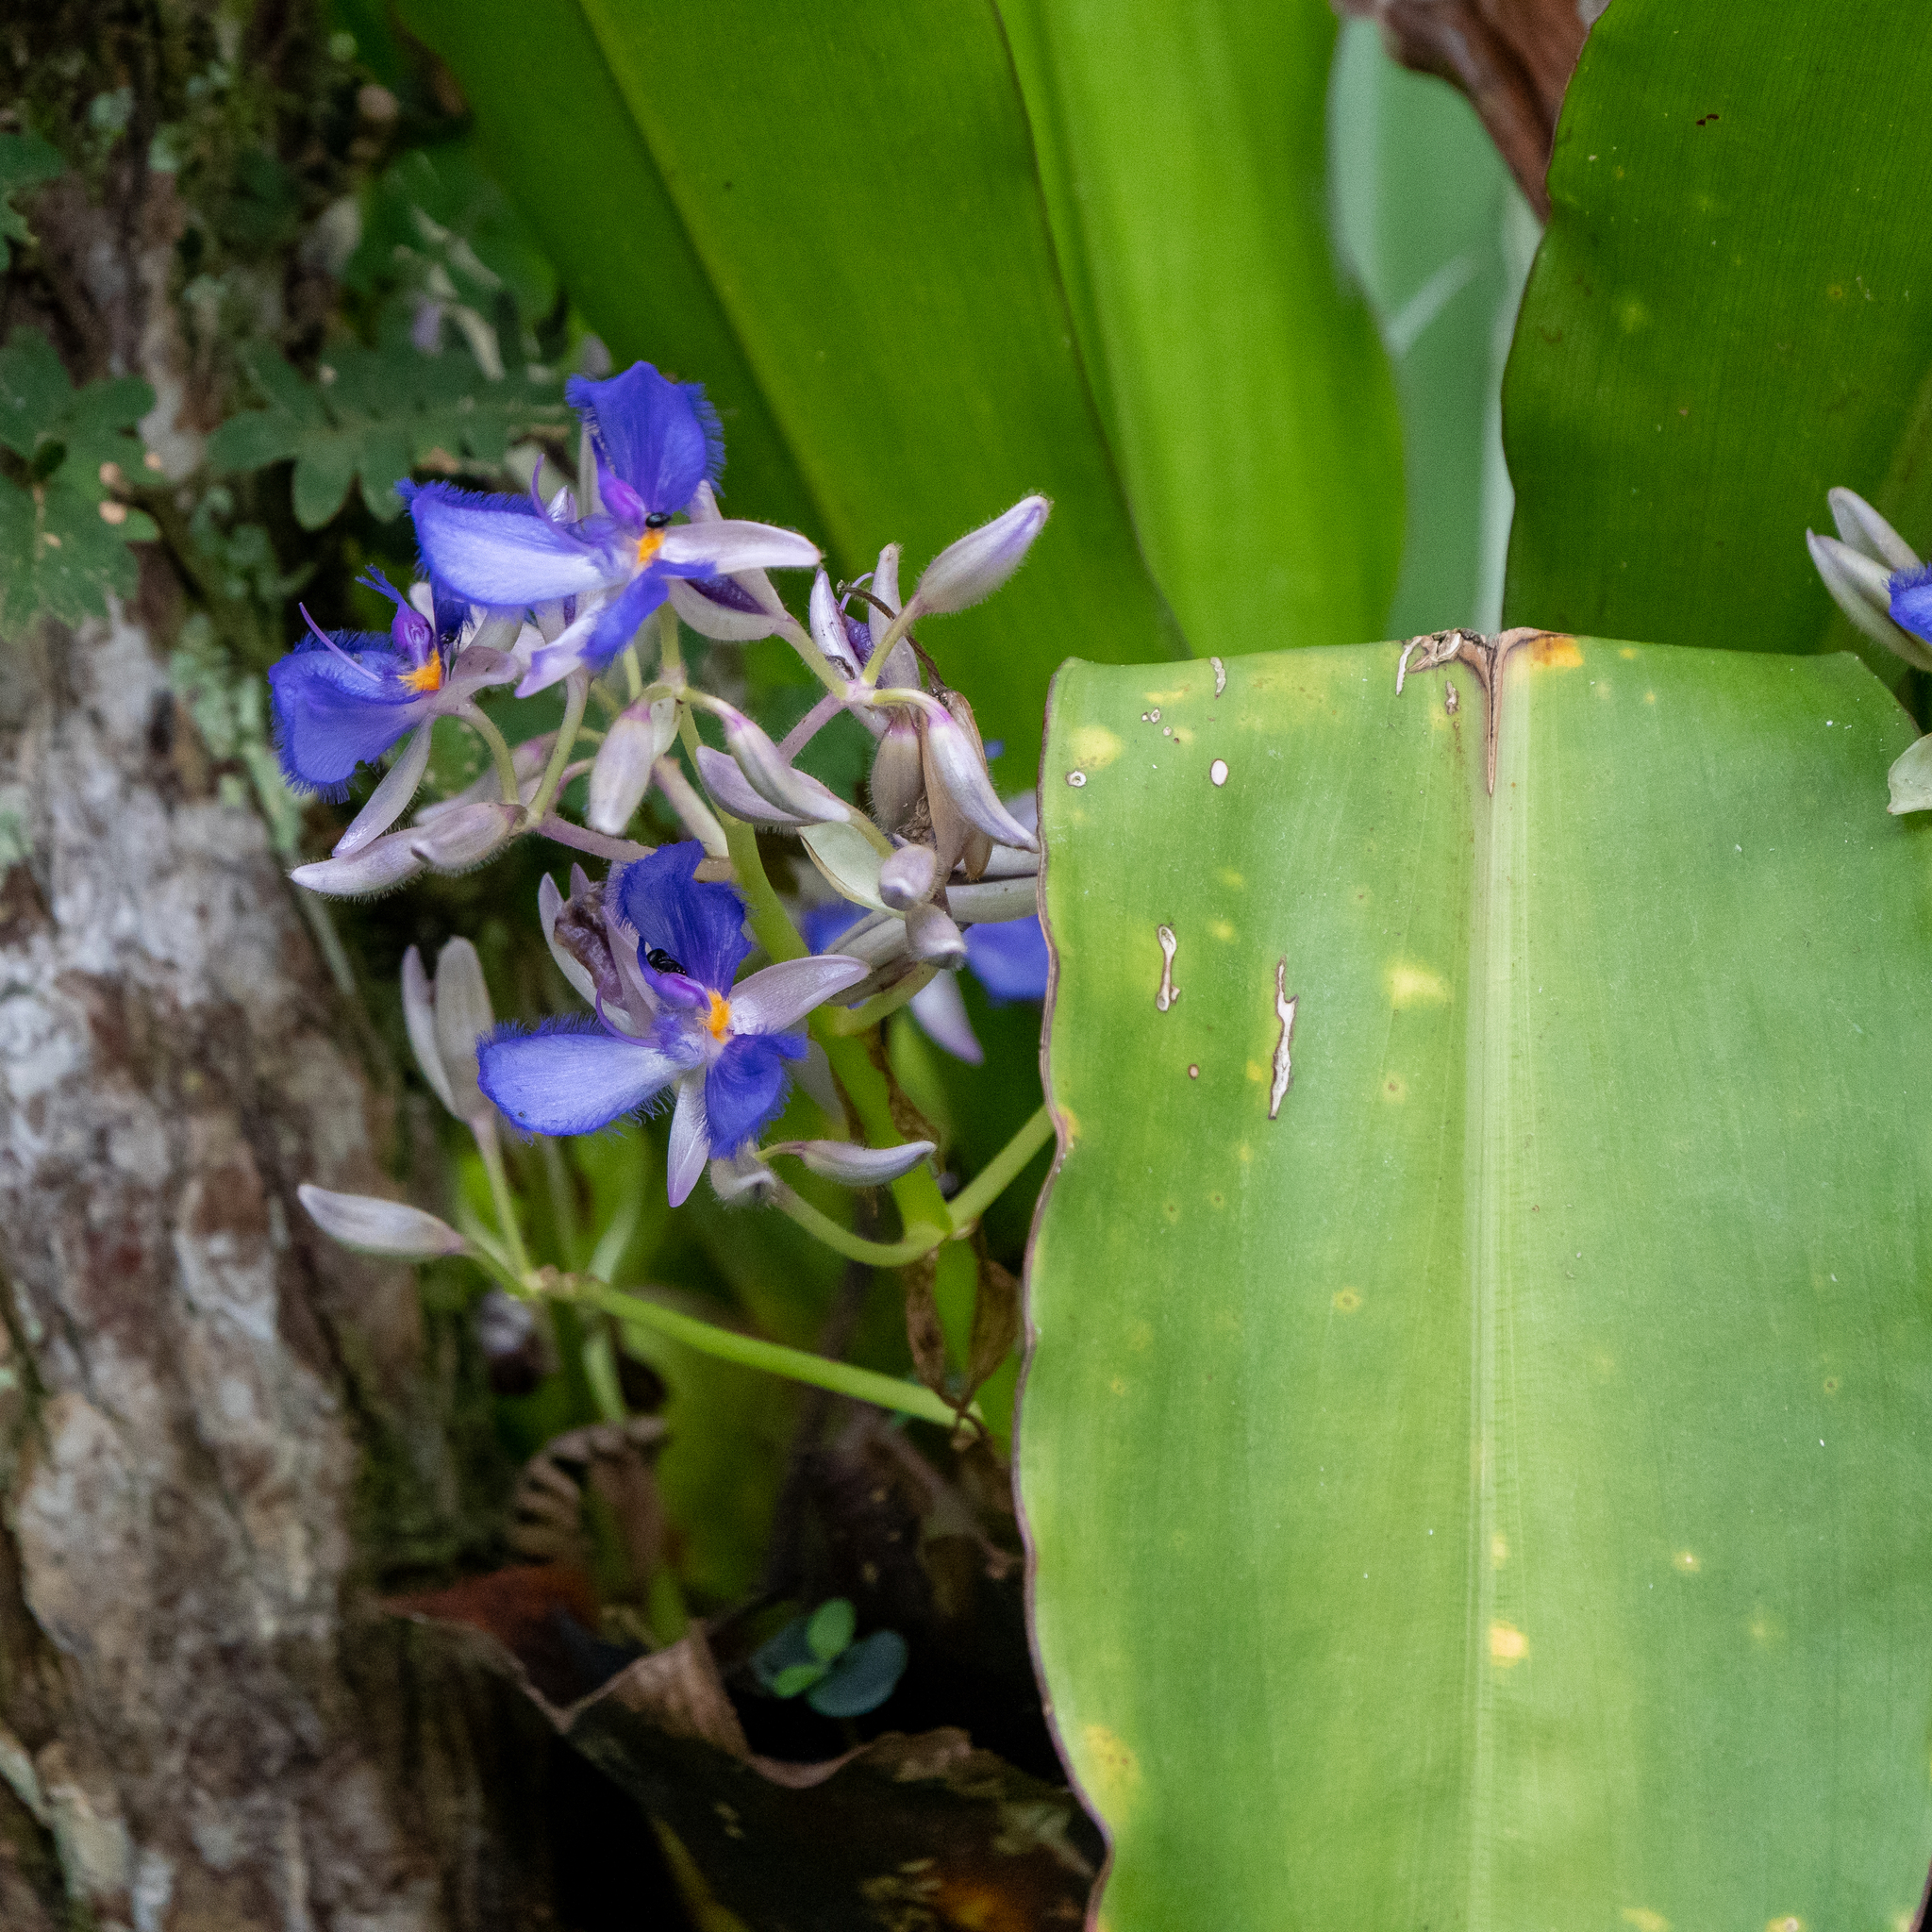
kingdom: Plantae
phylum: Tracheophyta
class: Liliopsida
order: Commelinales
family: Commelinaceae
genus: Cochliostema
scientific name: Cochliostema odoratissimum
